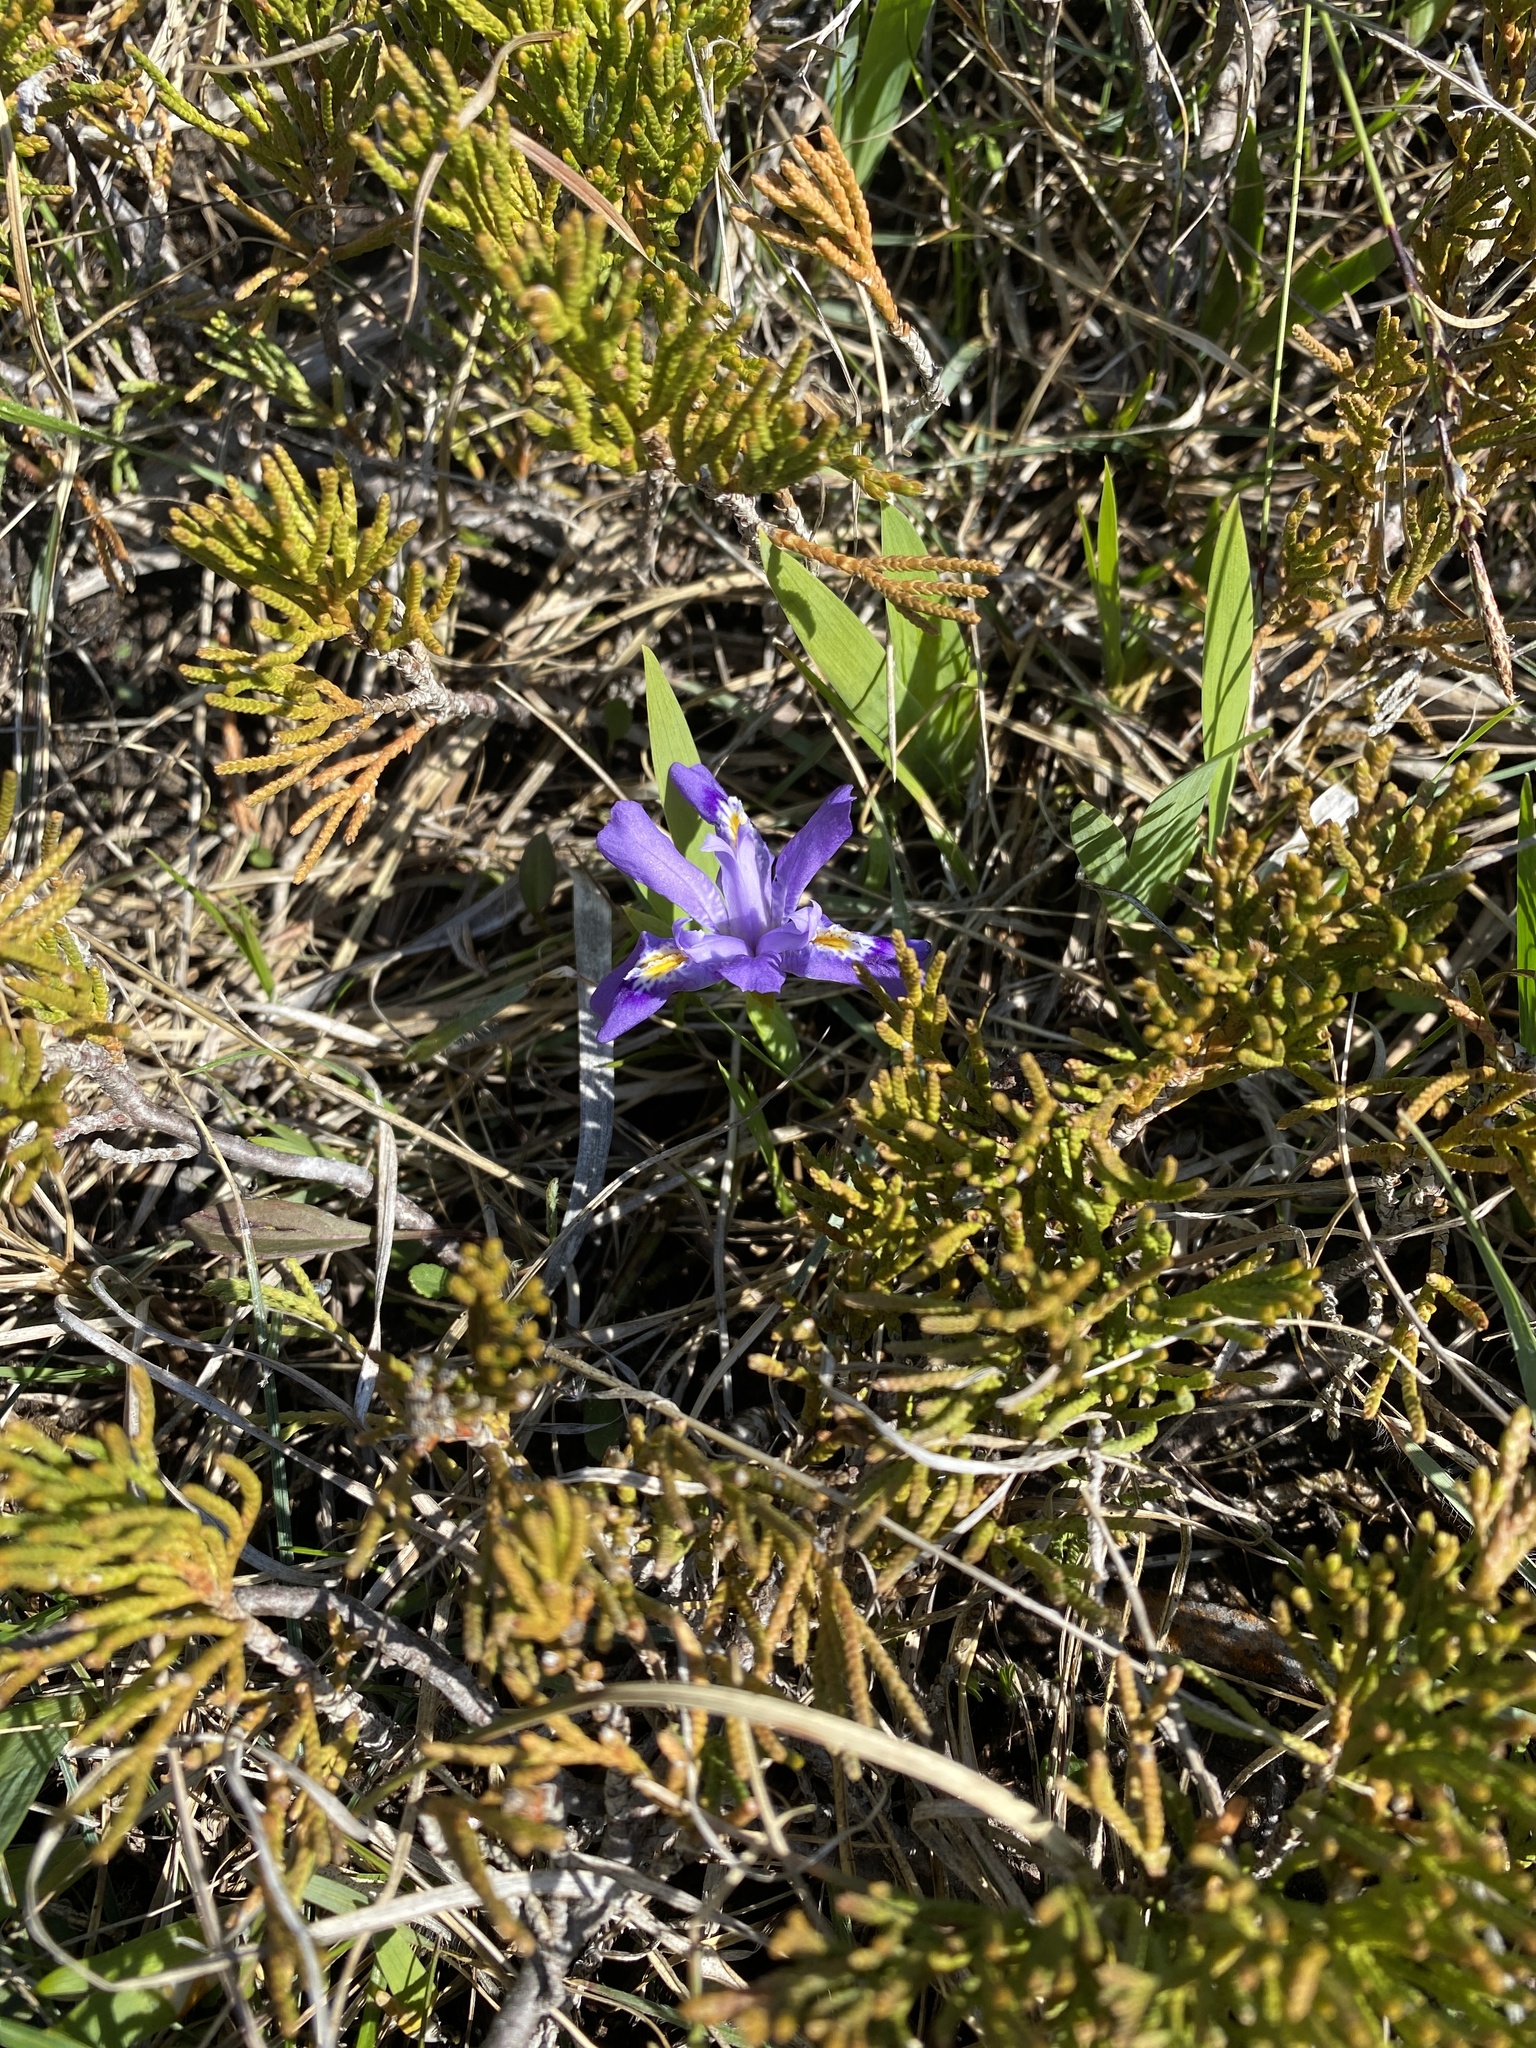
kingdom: Plantae
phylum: Tracheophyta
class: Liliopsida
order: Asparagales
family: Iridaceae
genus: Iris
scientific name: Iris lacustris
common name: Dwarf lake iris
